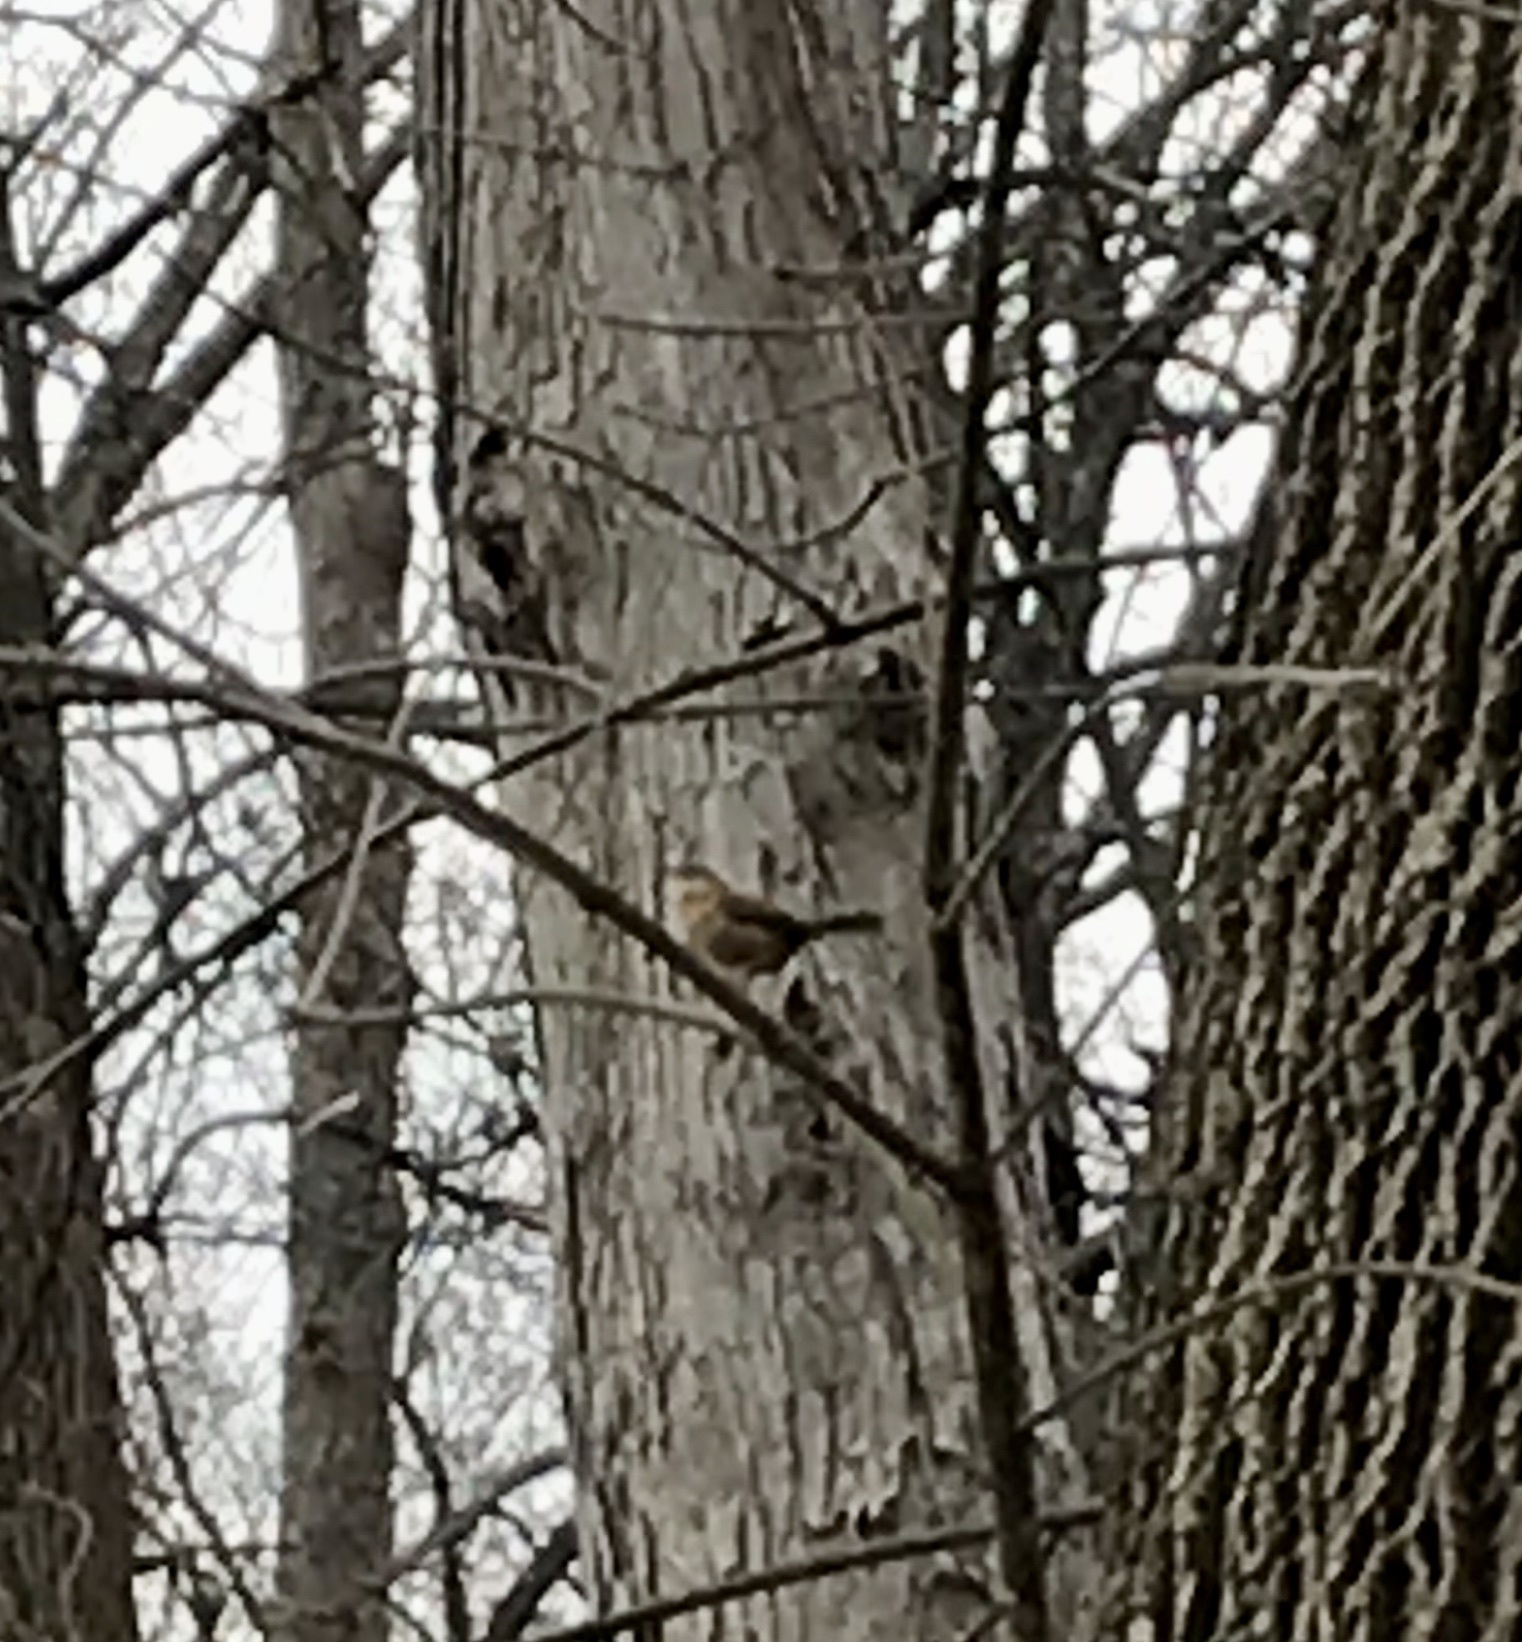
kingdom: Animalia
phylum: Chordata
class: Aves
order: Passeriformes
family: Troglodytidae
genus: Thryothorus
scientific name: Thryothorus ludovicianus
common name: Carolina wren
